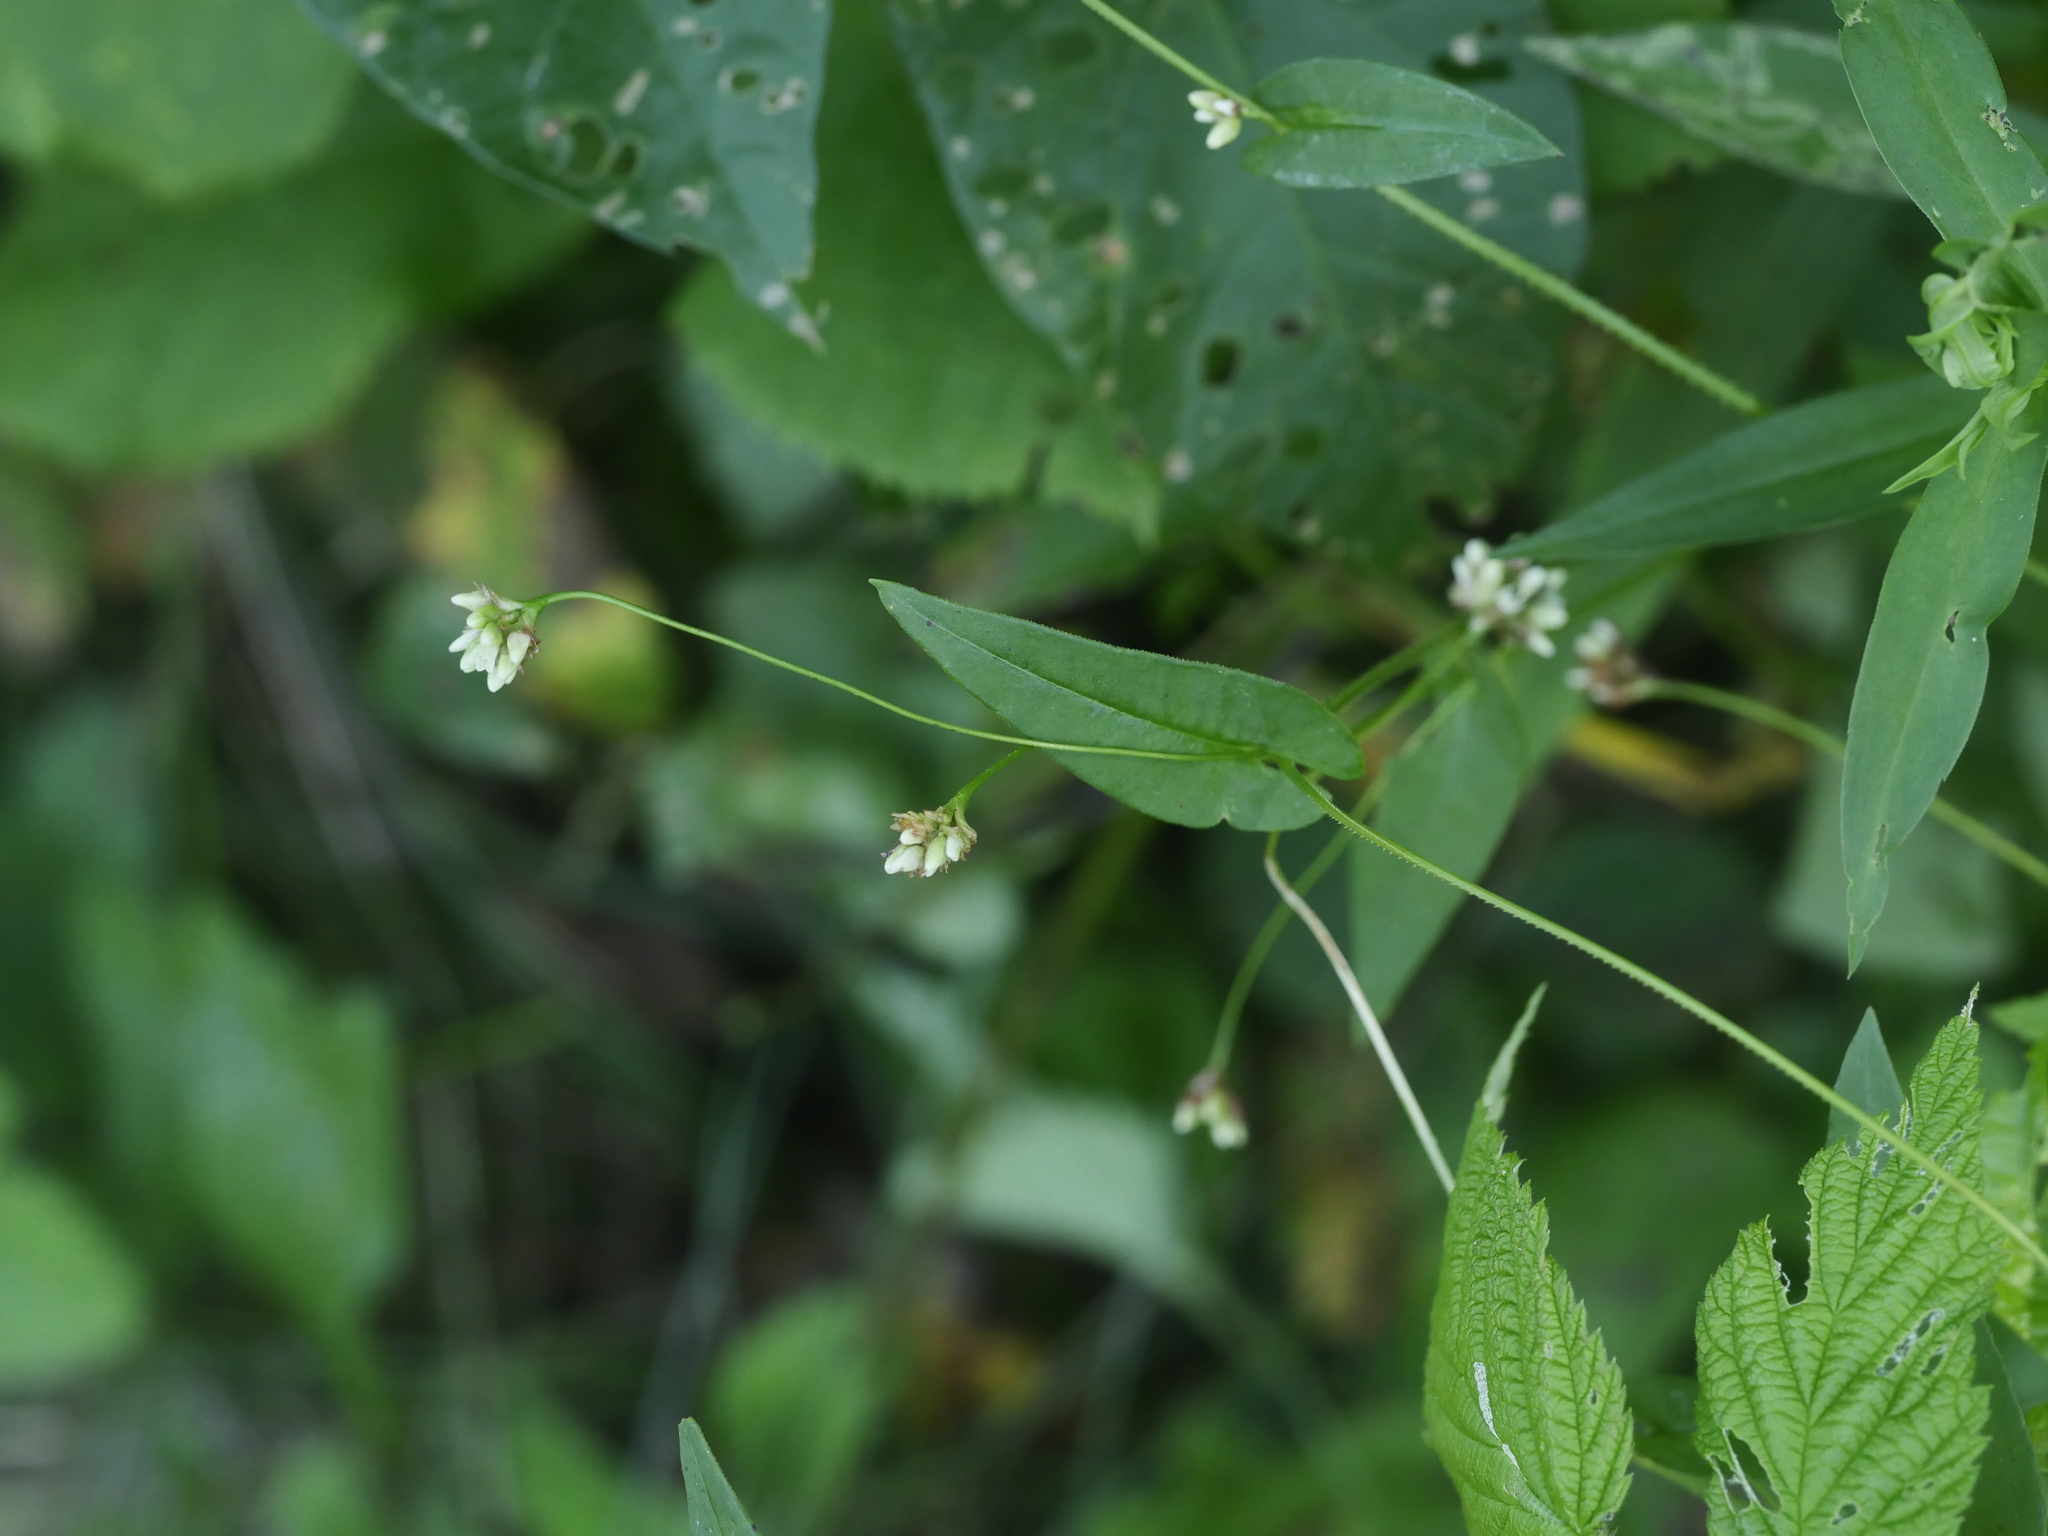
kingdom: Plantae
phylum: Tracheophyta
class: Magnoliopsida
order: Caryophyllales
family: Polygonaceae
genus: Persicaria
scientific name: Persicaria sagittata
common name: American tearthumb
